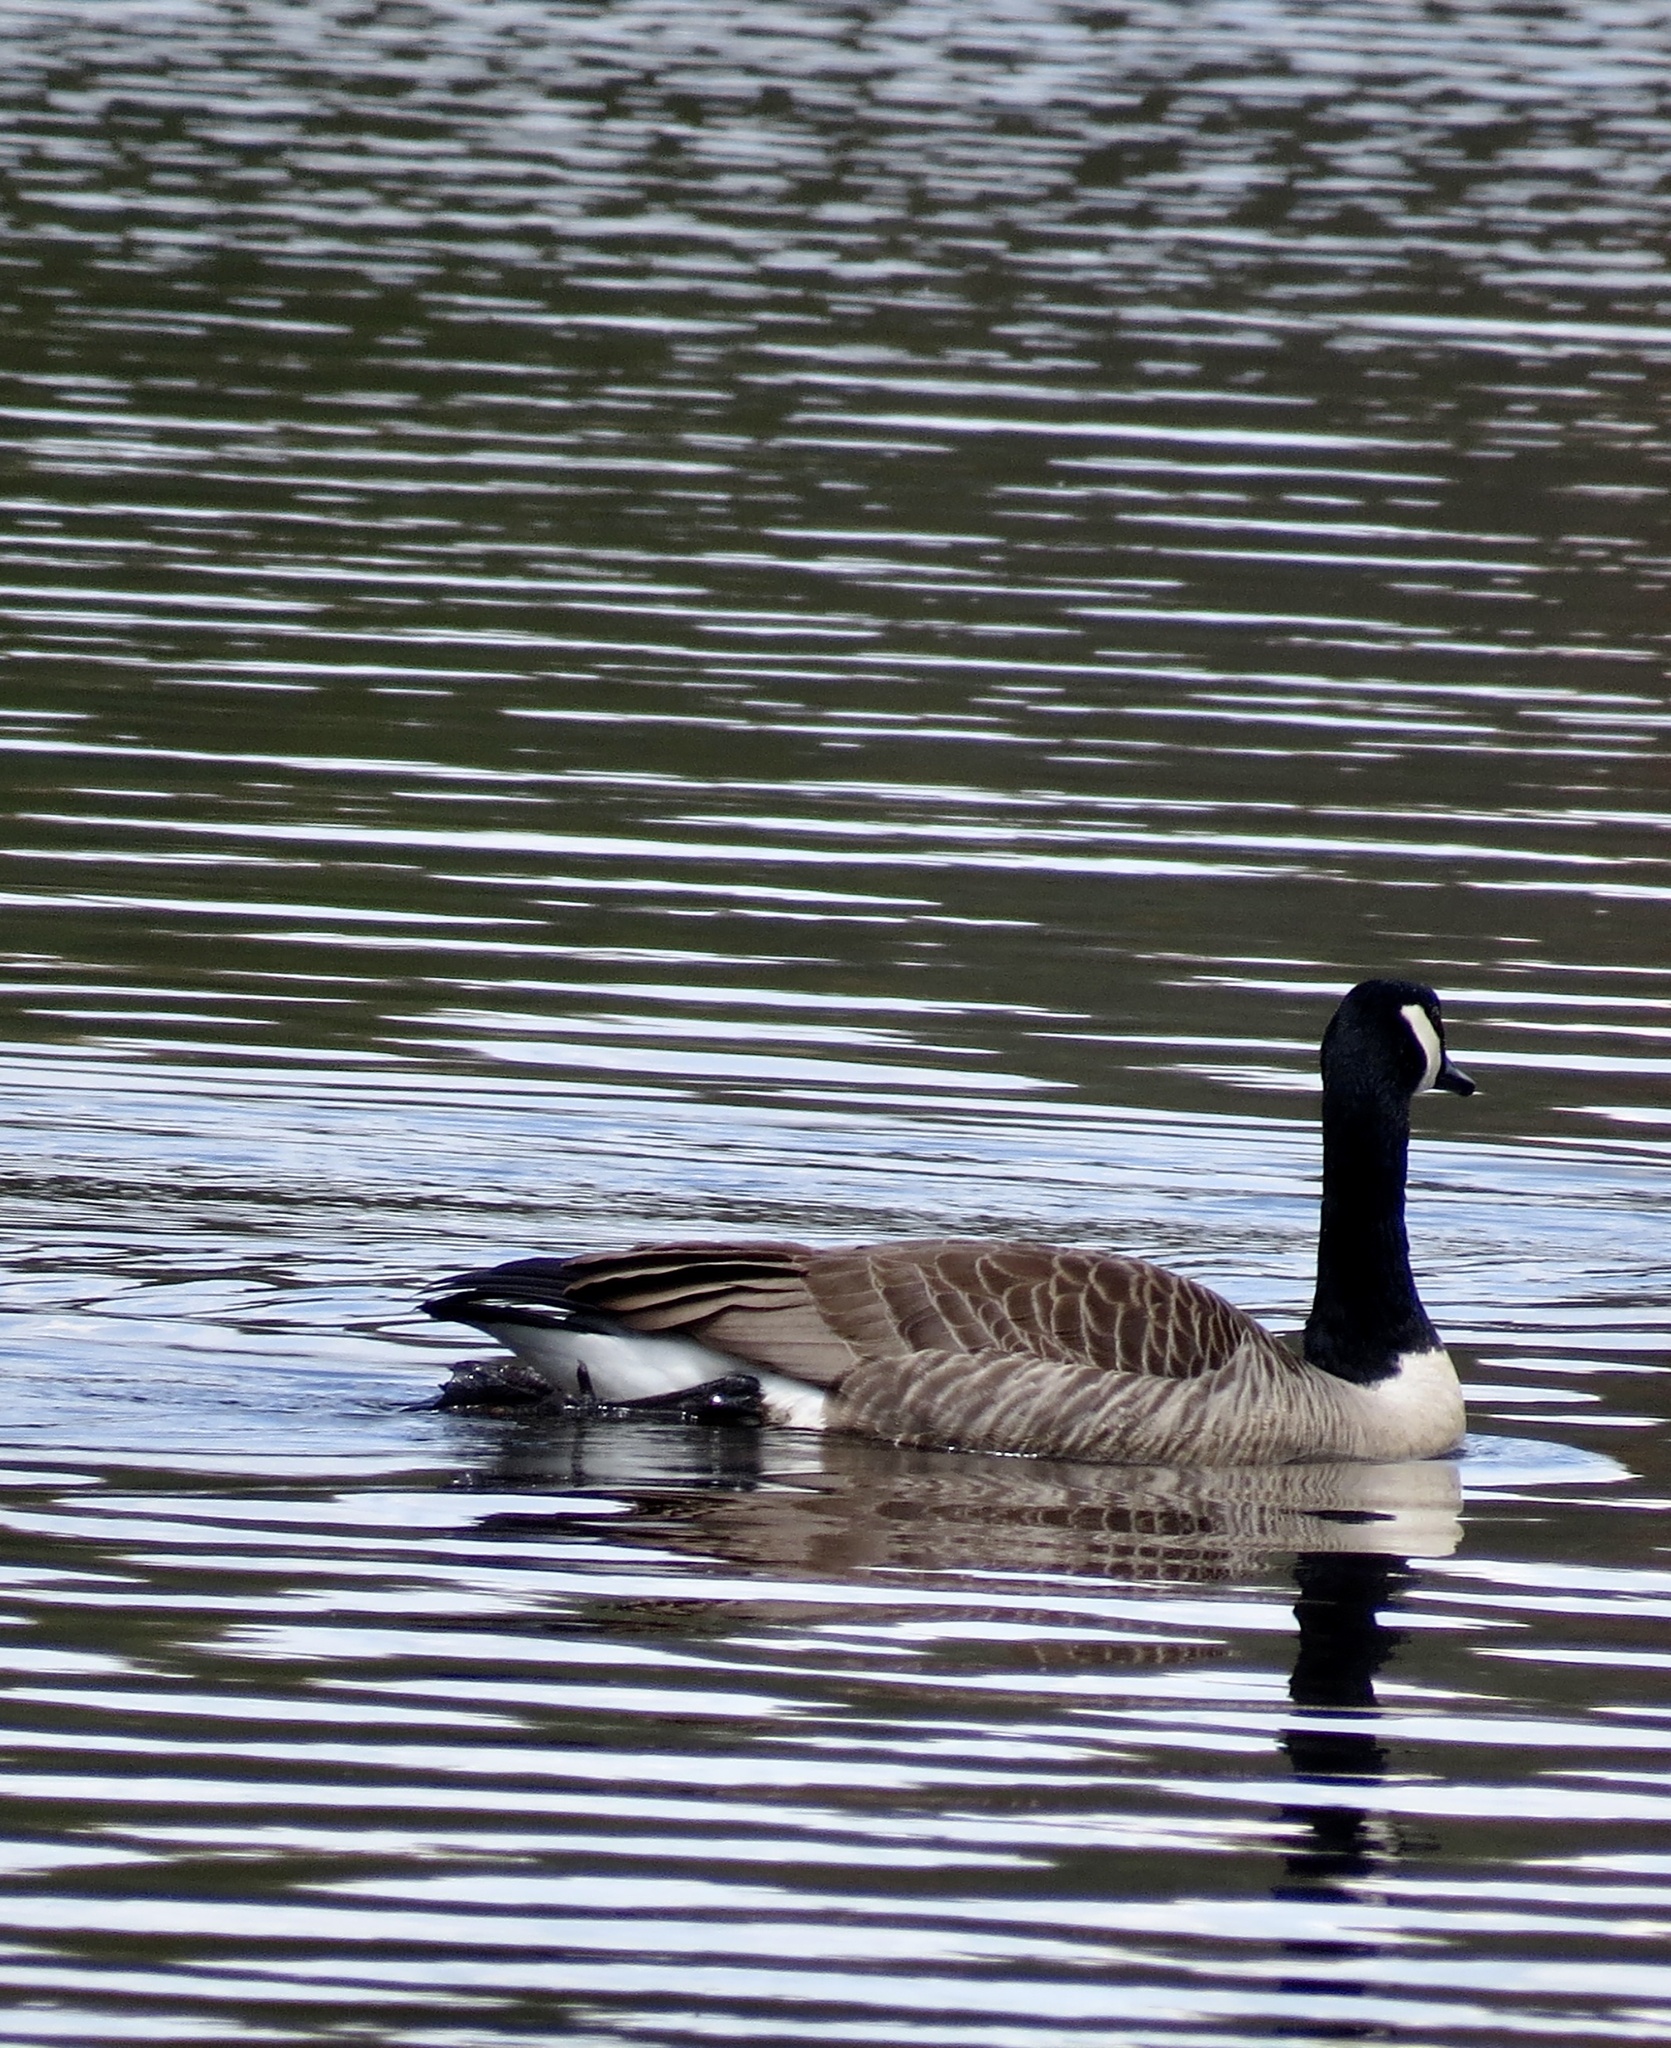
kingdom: Animalia
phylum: Chordata
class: Aves
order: Anseriformes
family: Anatidae
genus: Branta
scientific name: Branta canadensis
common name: Canada goose
